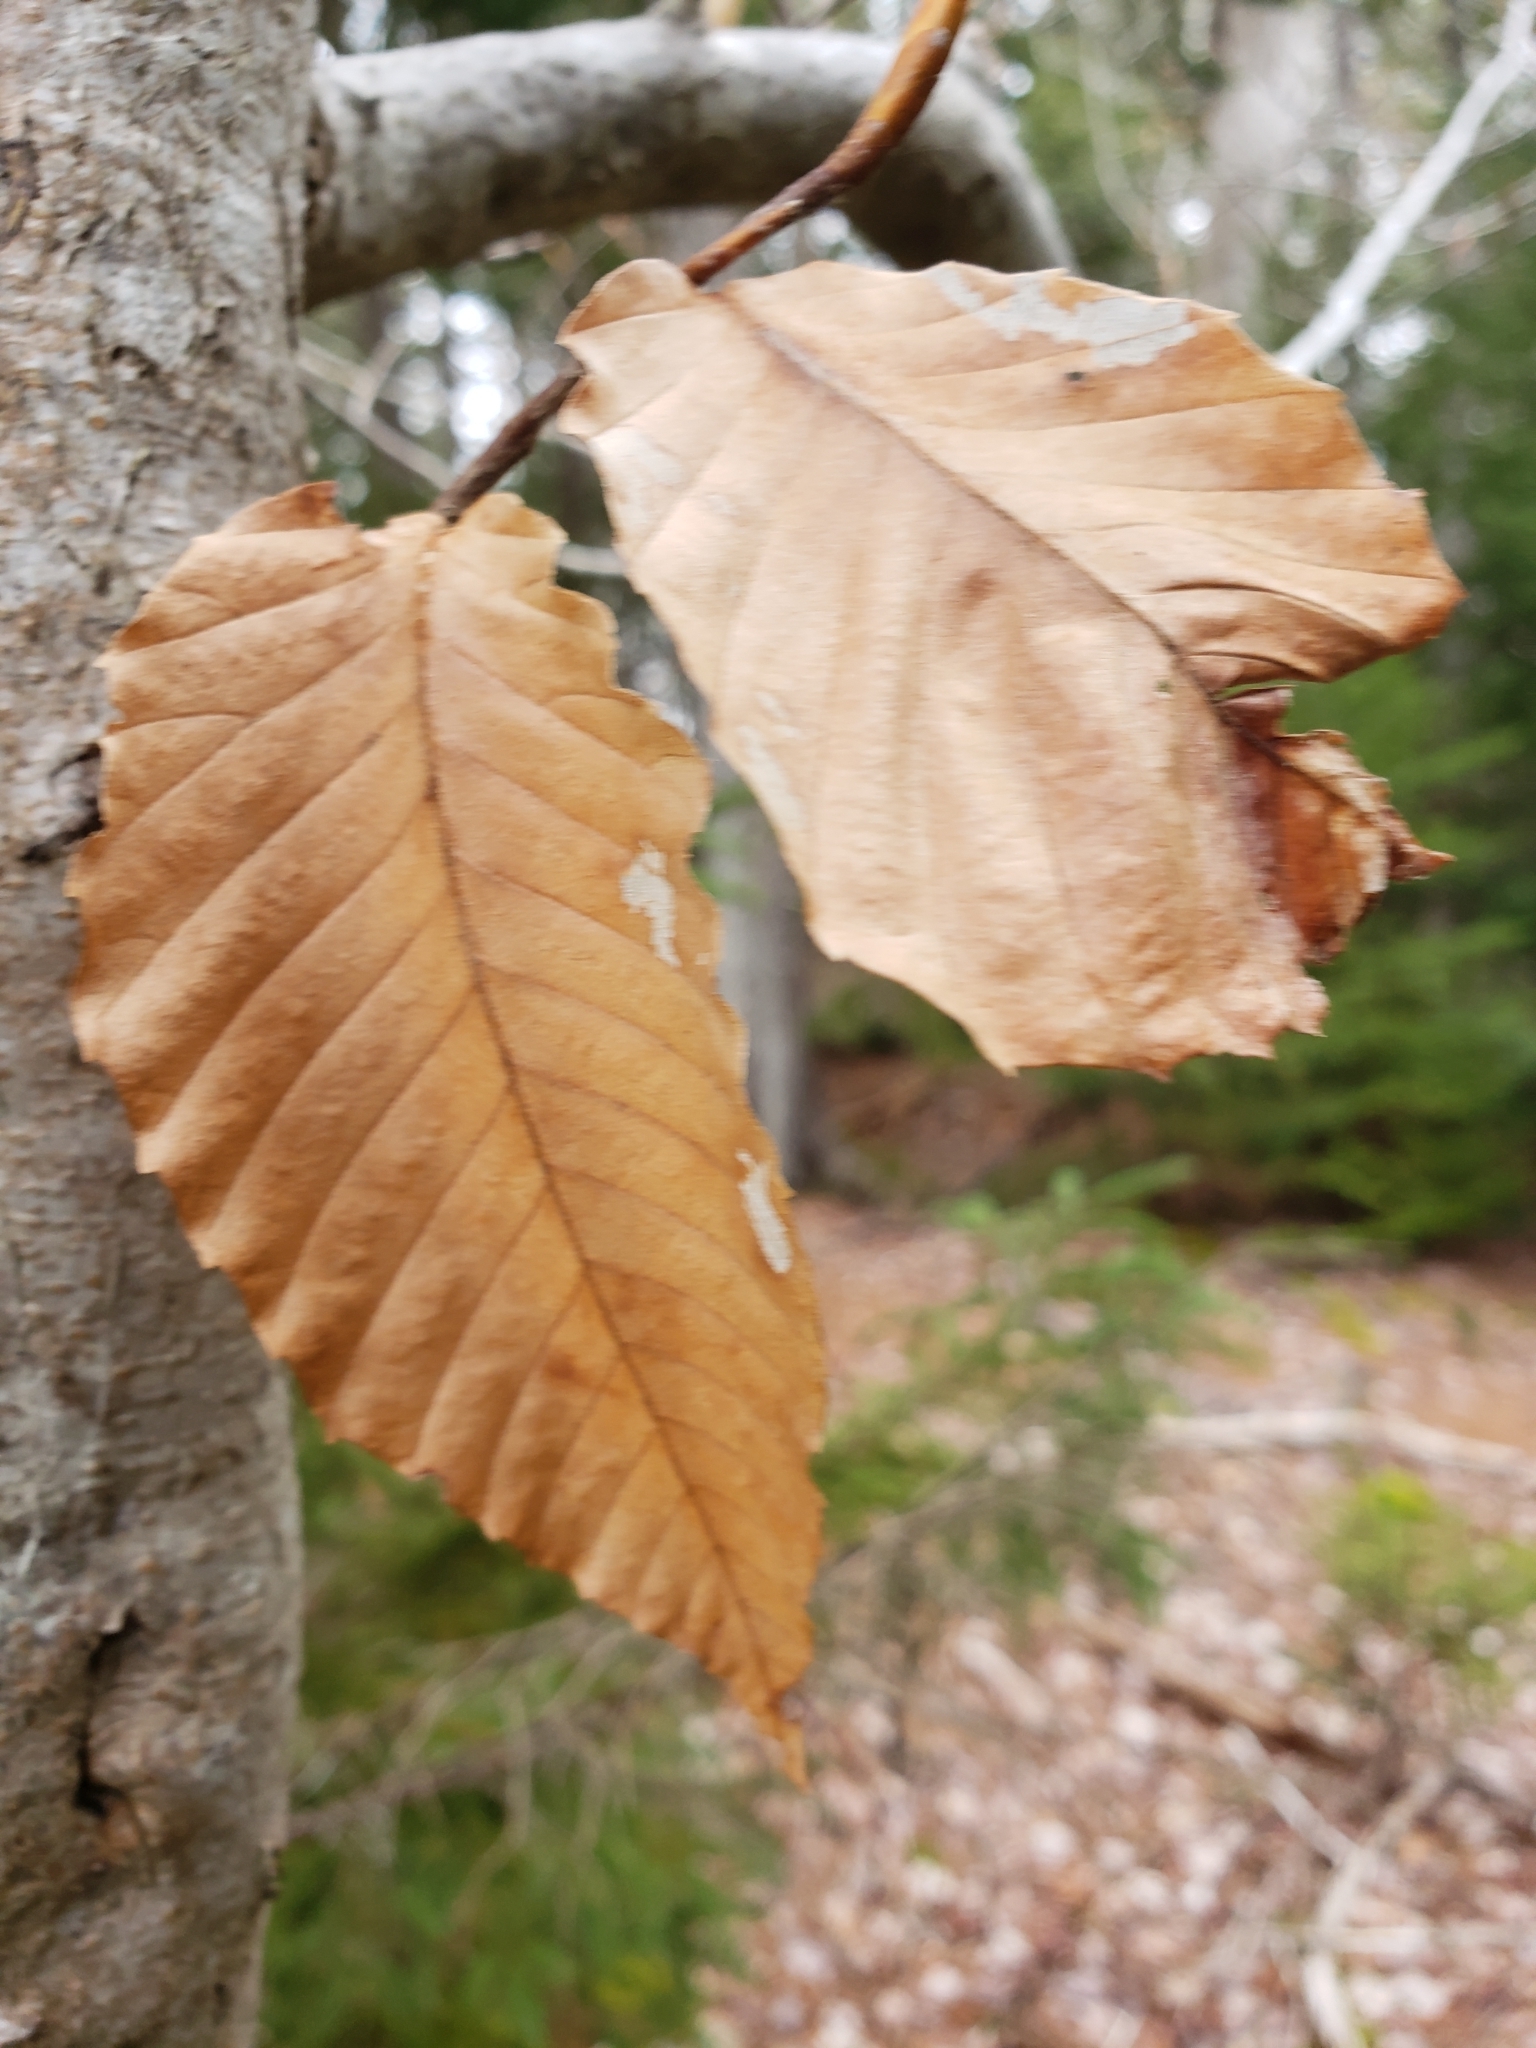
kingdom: Plantae
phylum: Tracheophyta
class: Magnoliopsida
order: Fagales
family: Fagaceae
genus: Fagus
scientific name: Fagus grandifolia
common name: American beech
